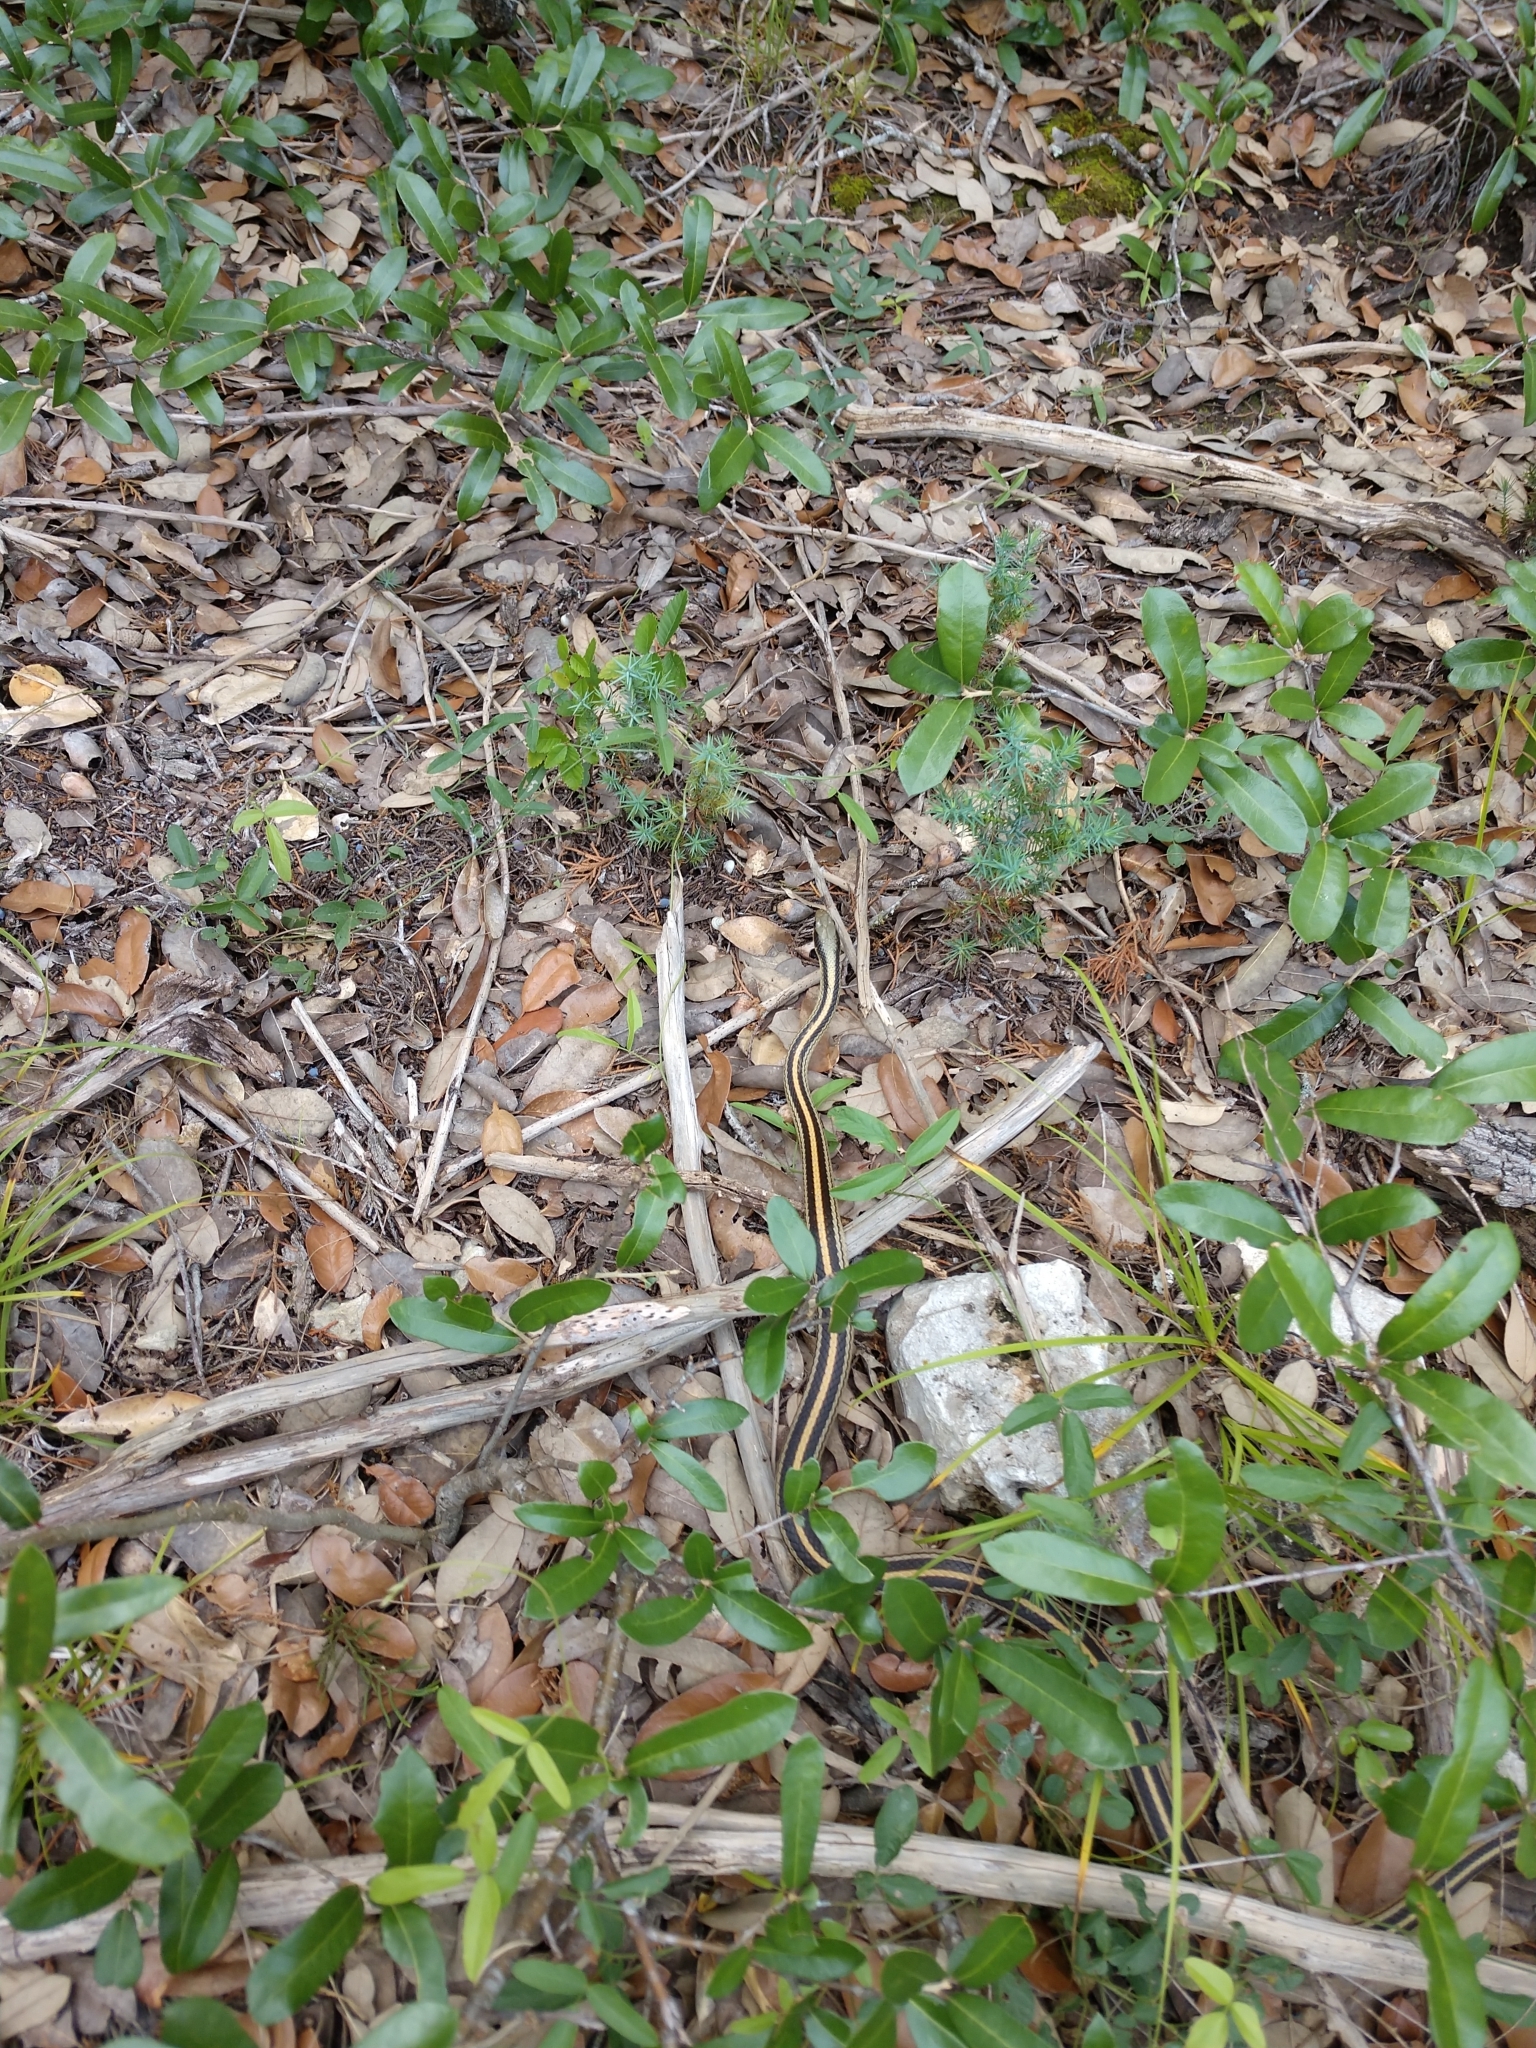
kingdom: Animalia
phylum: Chordata
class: Squamata
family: Colubridae
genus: Salvadora
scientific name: Salvadora lineata
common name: Texas patchnose snake
